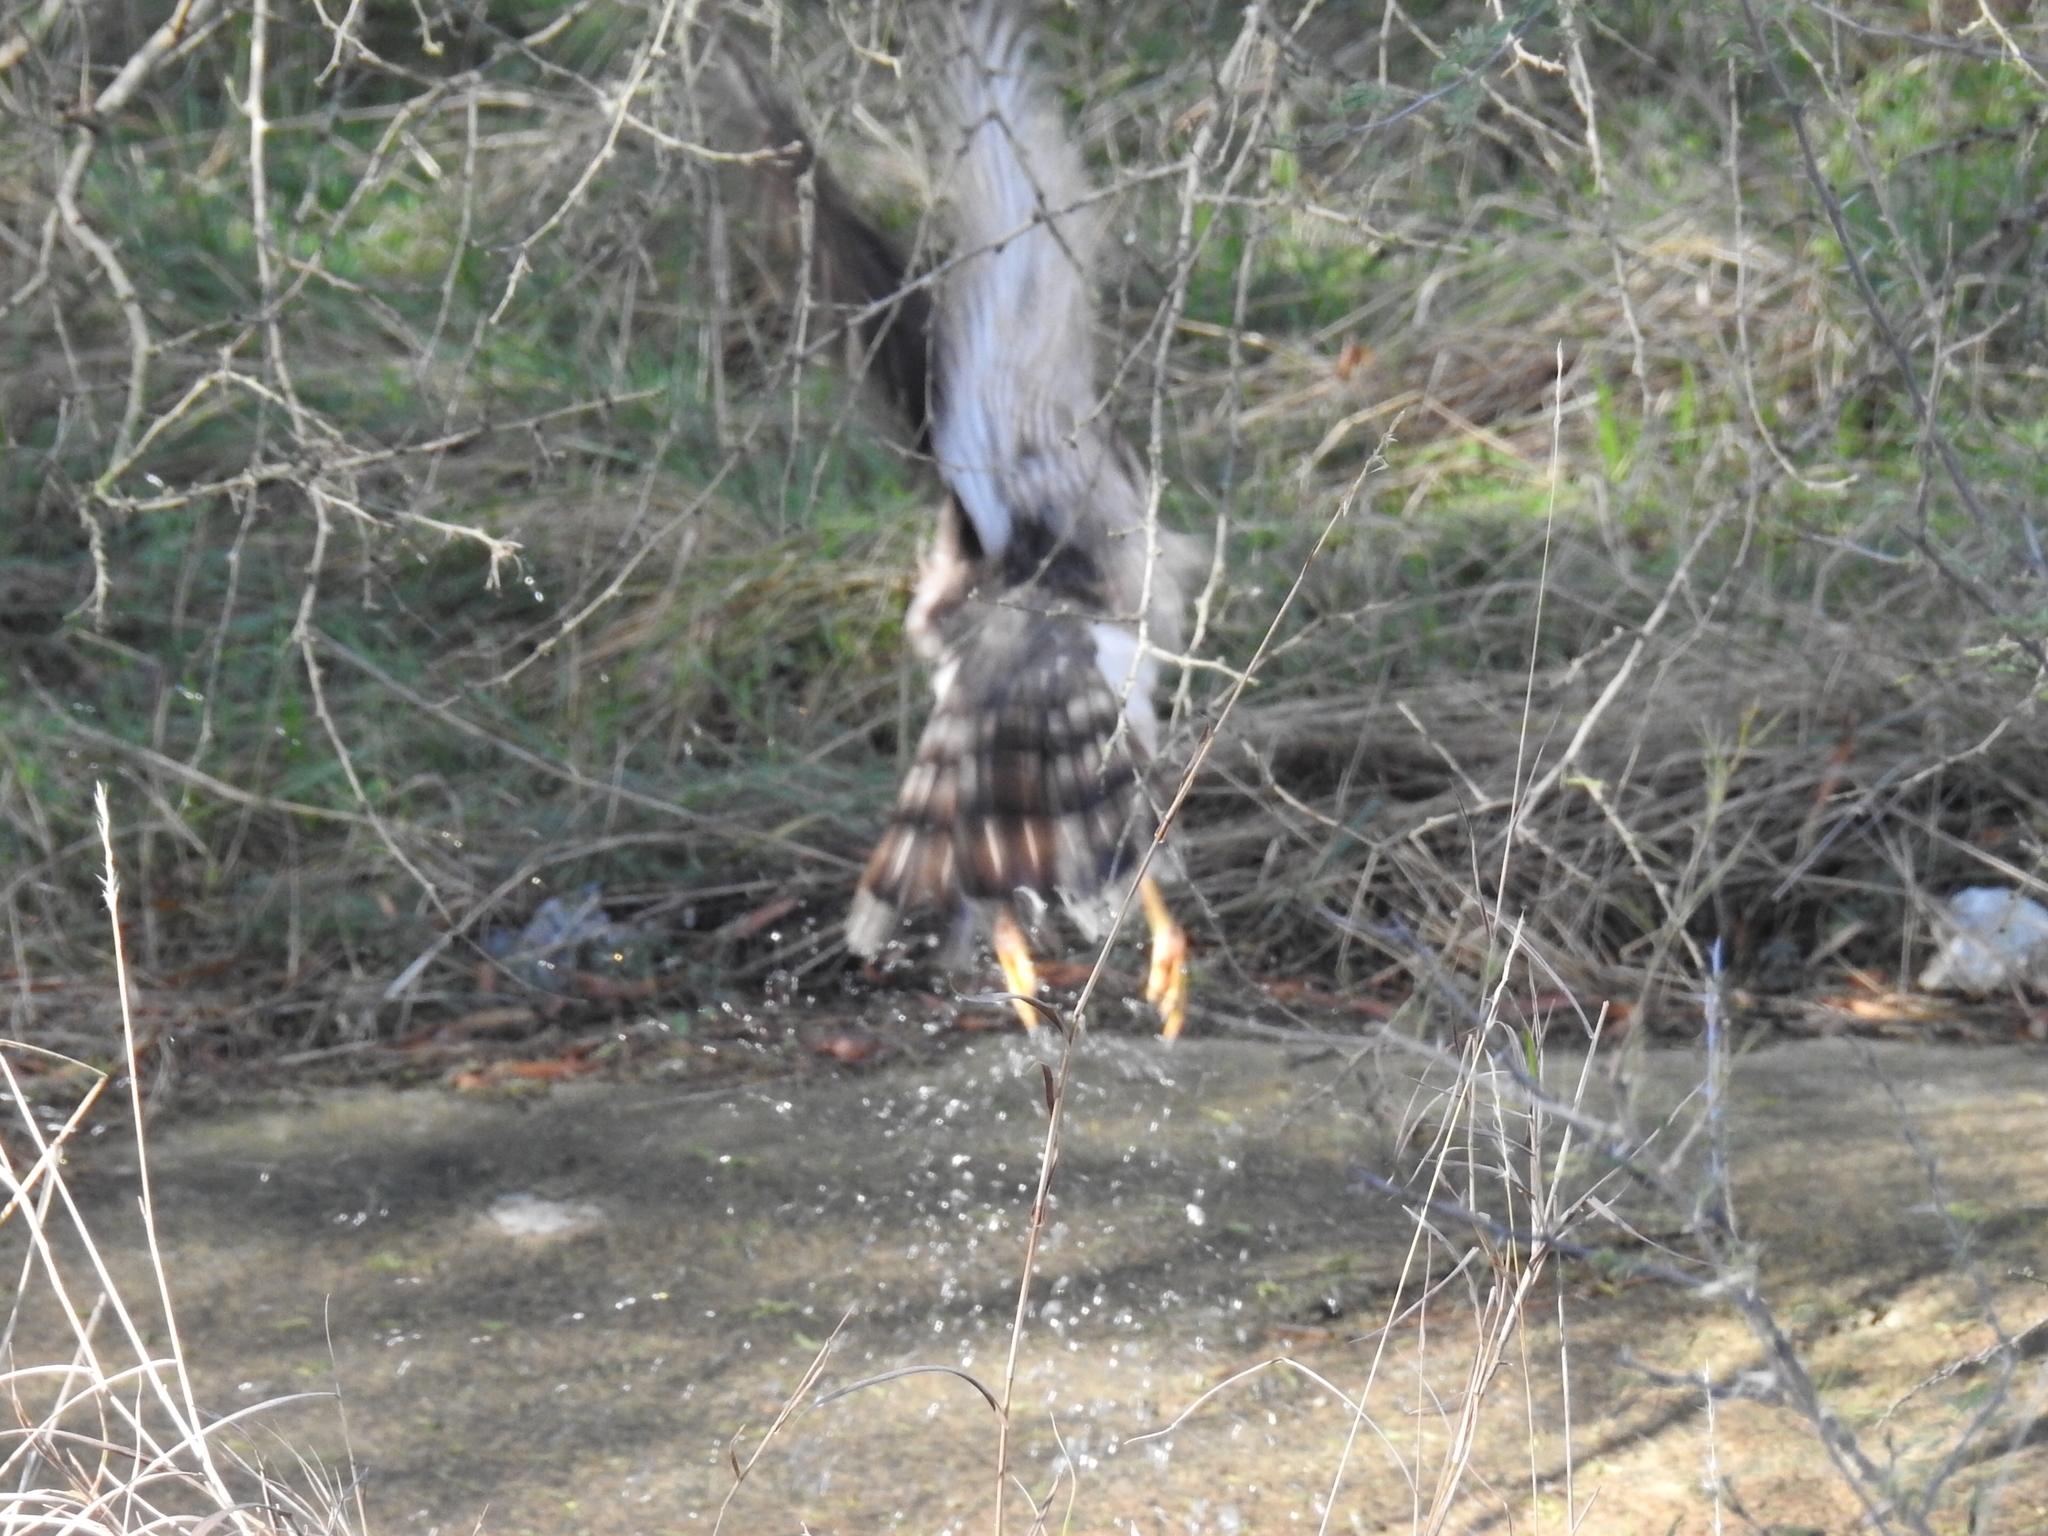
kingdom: Animalia
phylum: Chordata
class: Aves
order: Accipitriformes
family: Accipitridae
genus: Accipiter
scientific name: Accipiter cooperii
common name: Cooper's hawk
